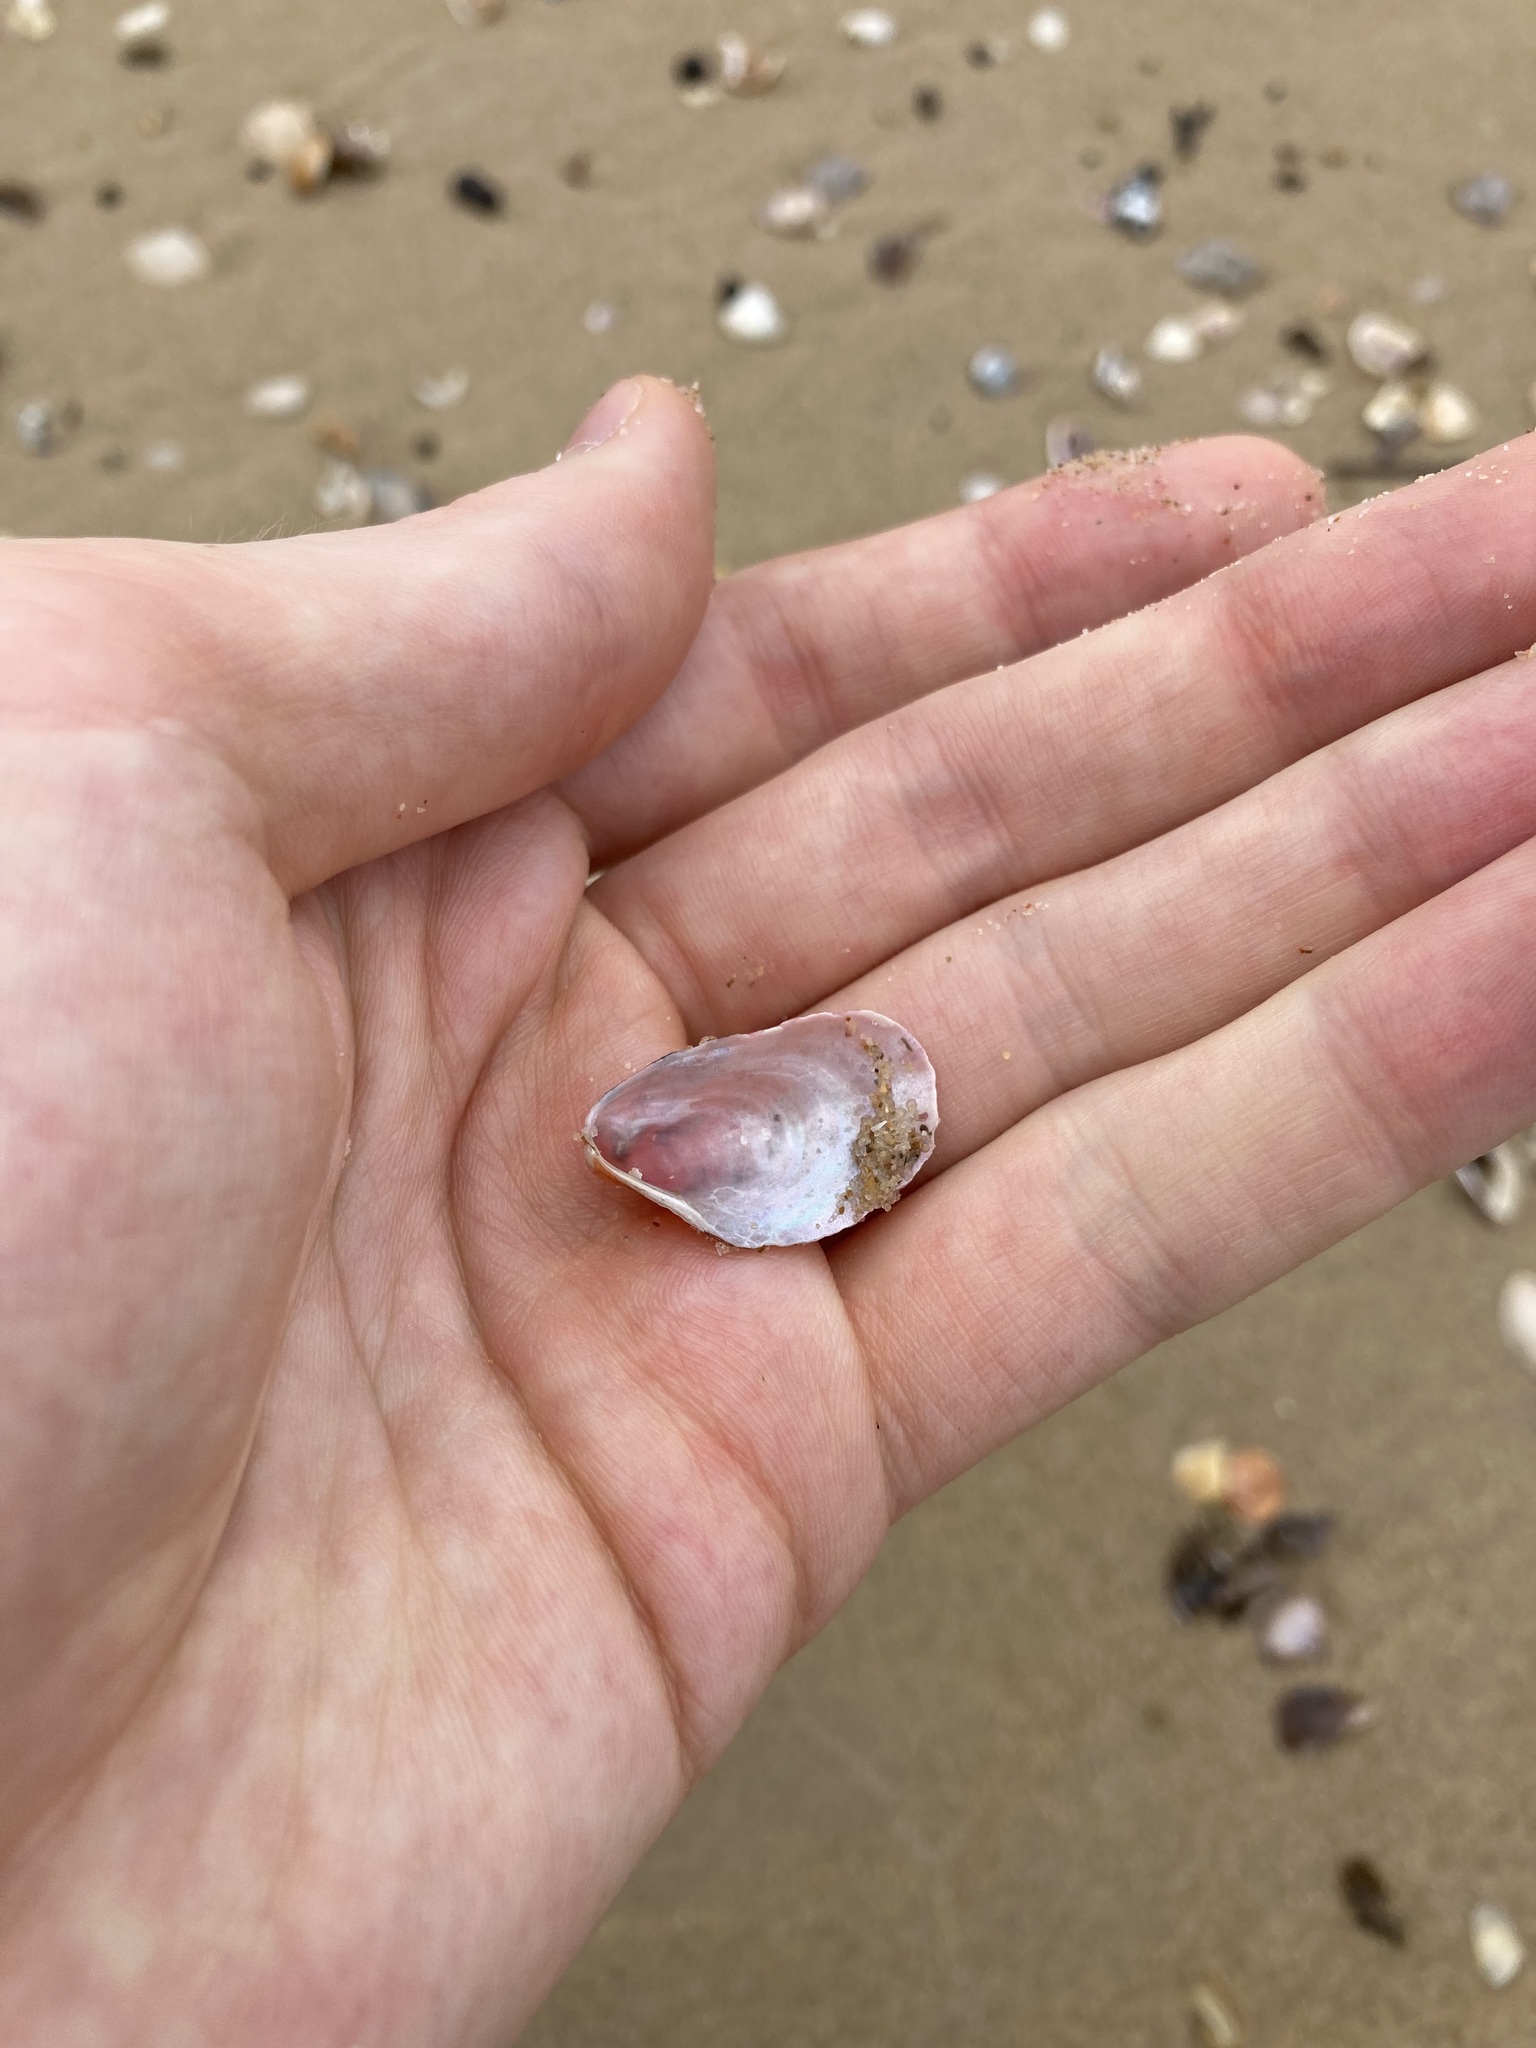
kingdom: Animalia
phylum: Mollusca
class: Bivalvia
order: Mytilida
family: Mytilidae
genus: Modiolus
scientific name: Modiolus areolatus
